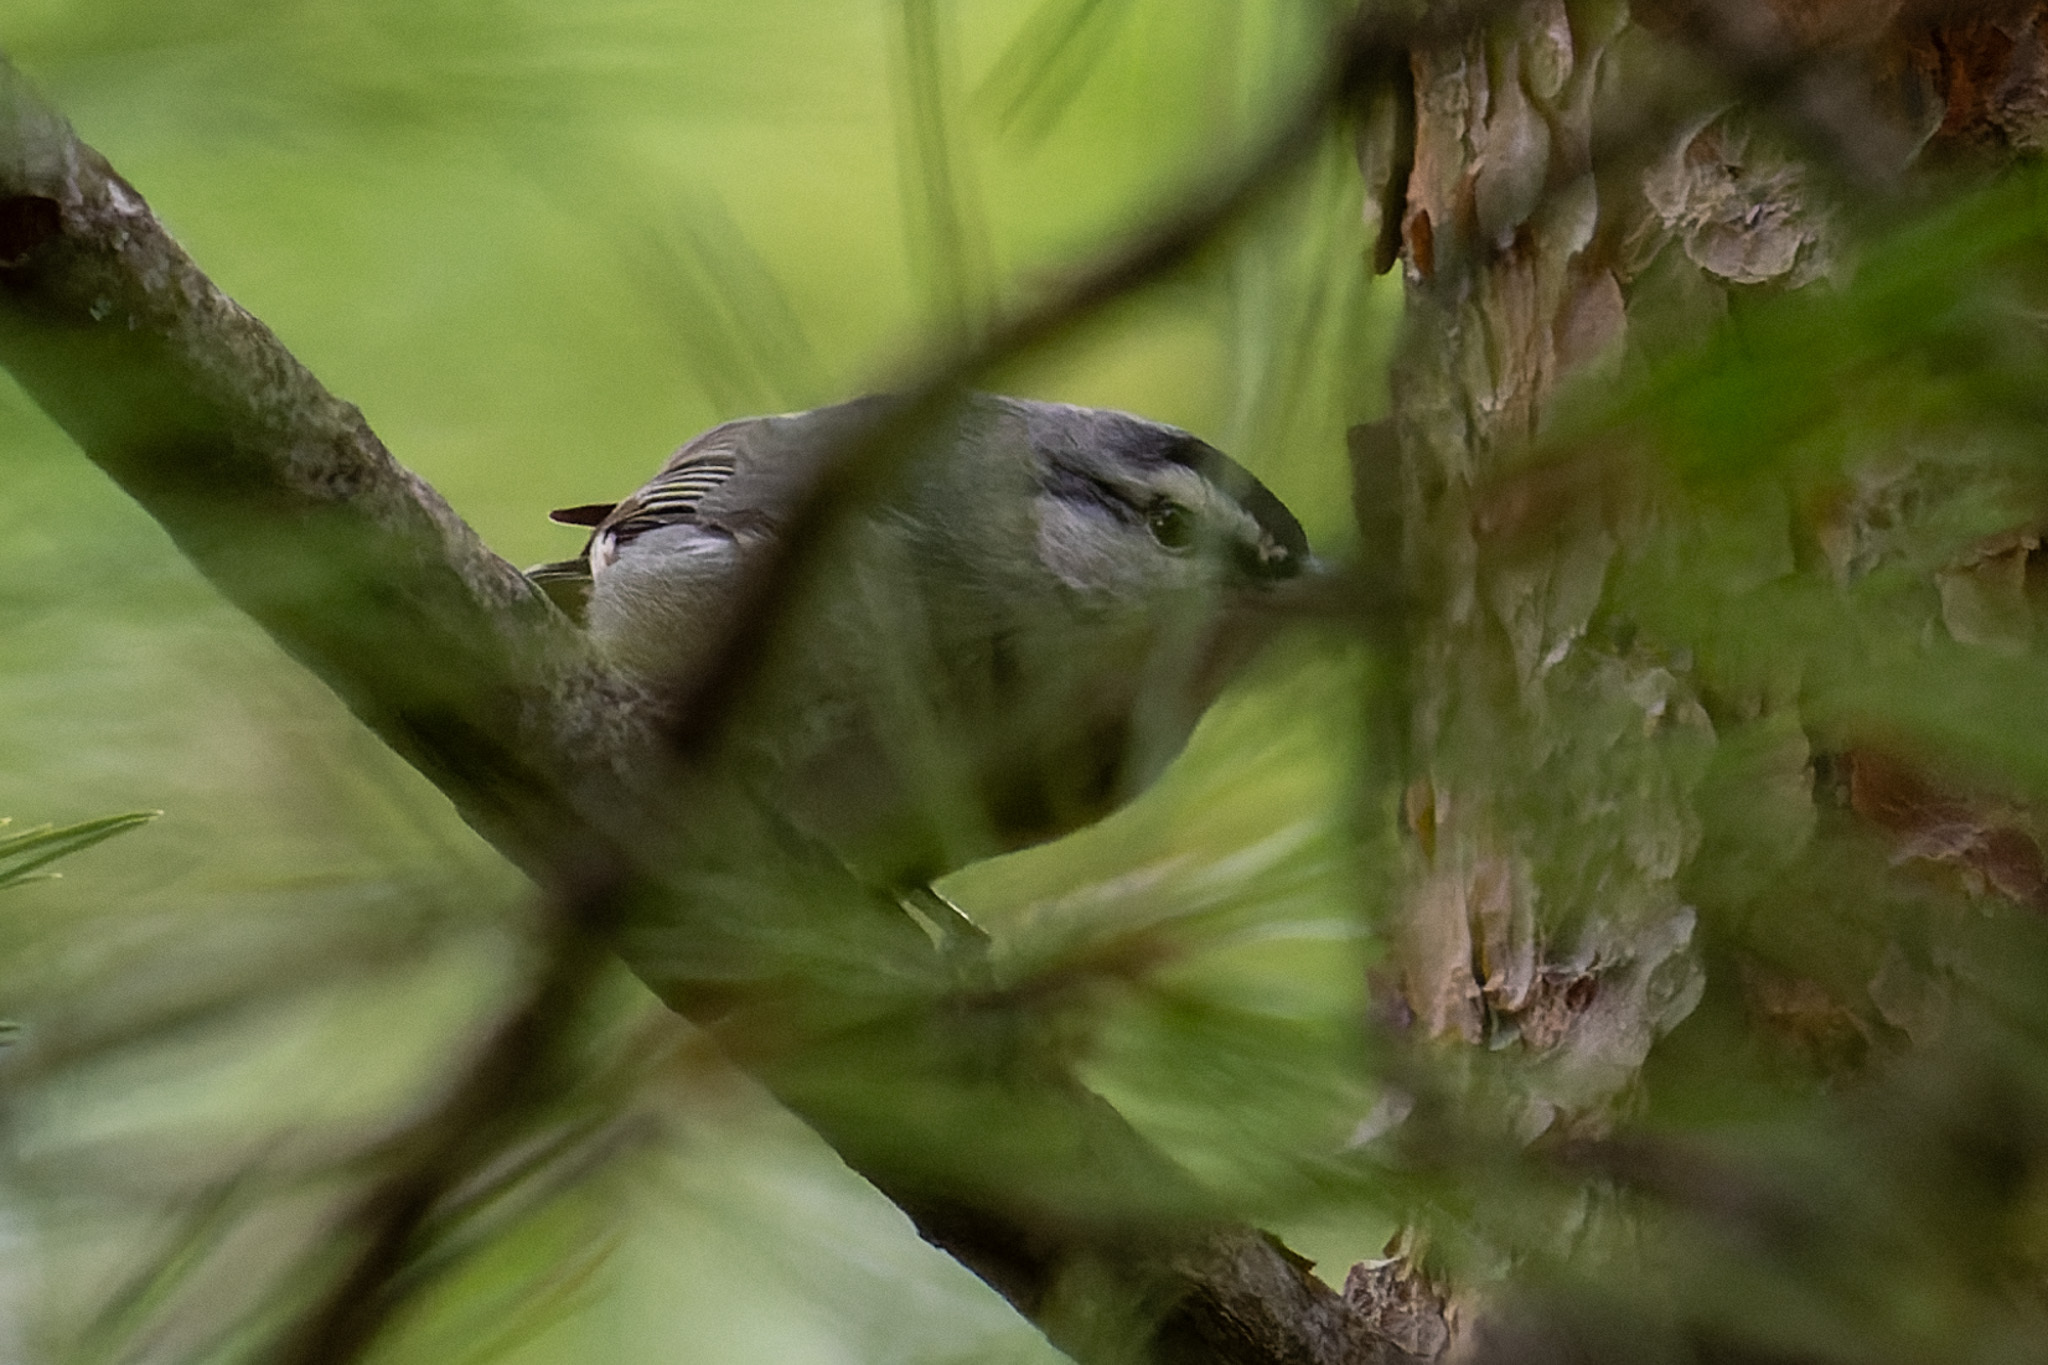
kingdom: Animalia
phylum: Chordata
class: Aves
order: Passeriformes
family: Sittidae
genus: Sitta
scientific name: Sitta krueperi
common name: Krüper's nuthatch
